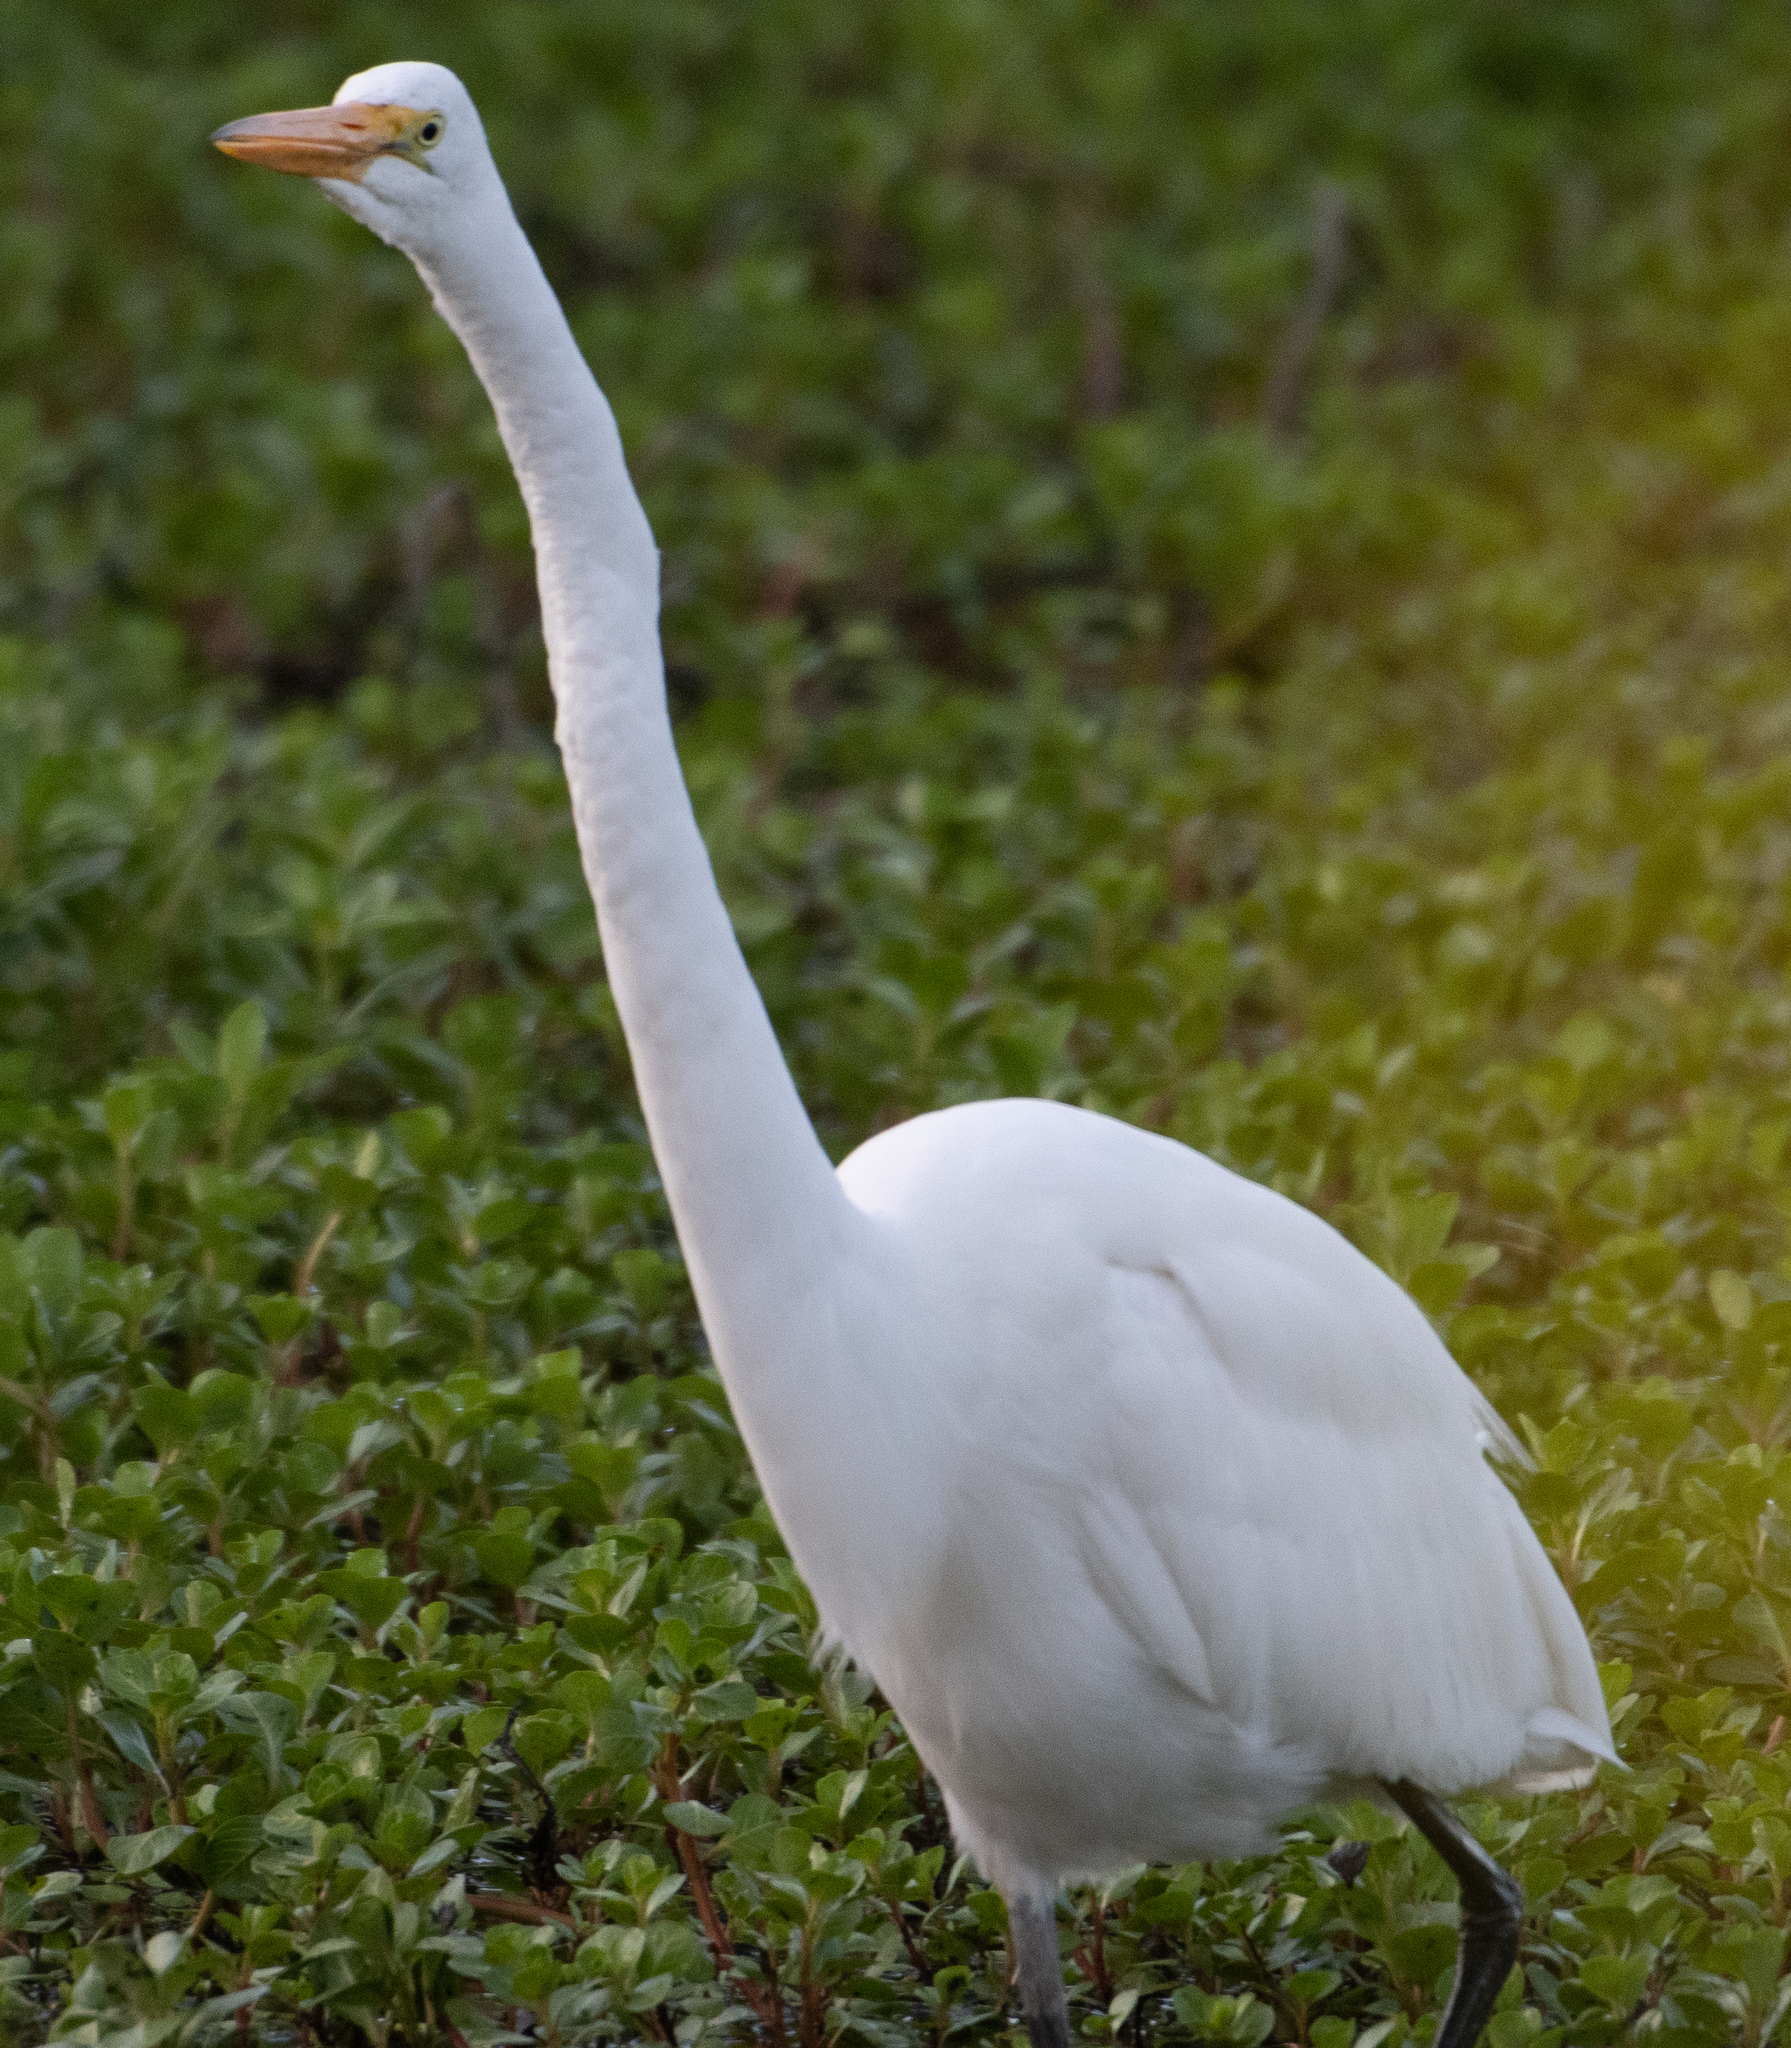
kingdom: Animalia
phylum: Chordata
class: Aves
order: Pelecaniformes
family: Ardeidae
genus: Ardea
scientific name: Ardea alba
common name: Great egret
